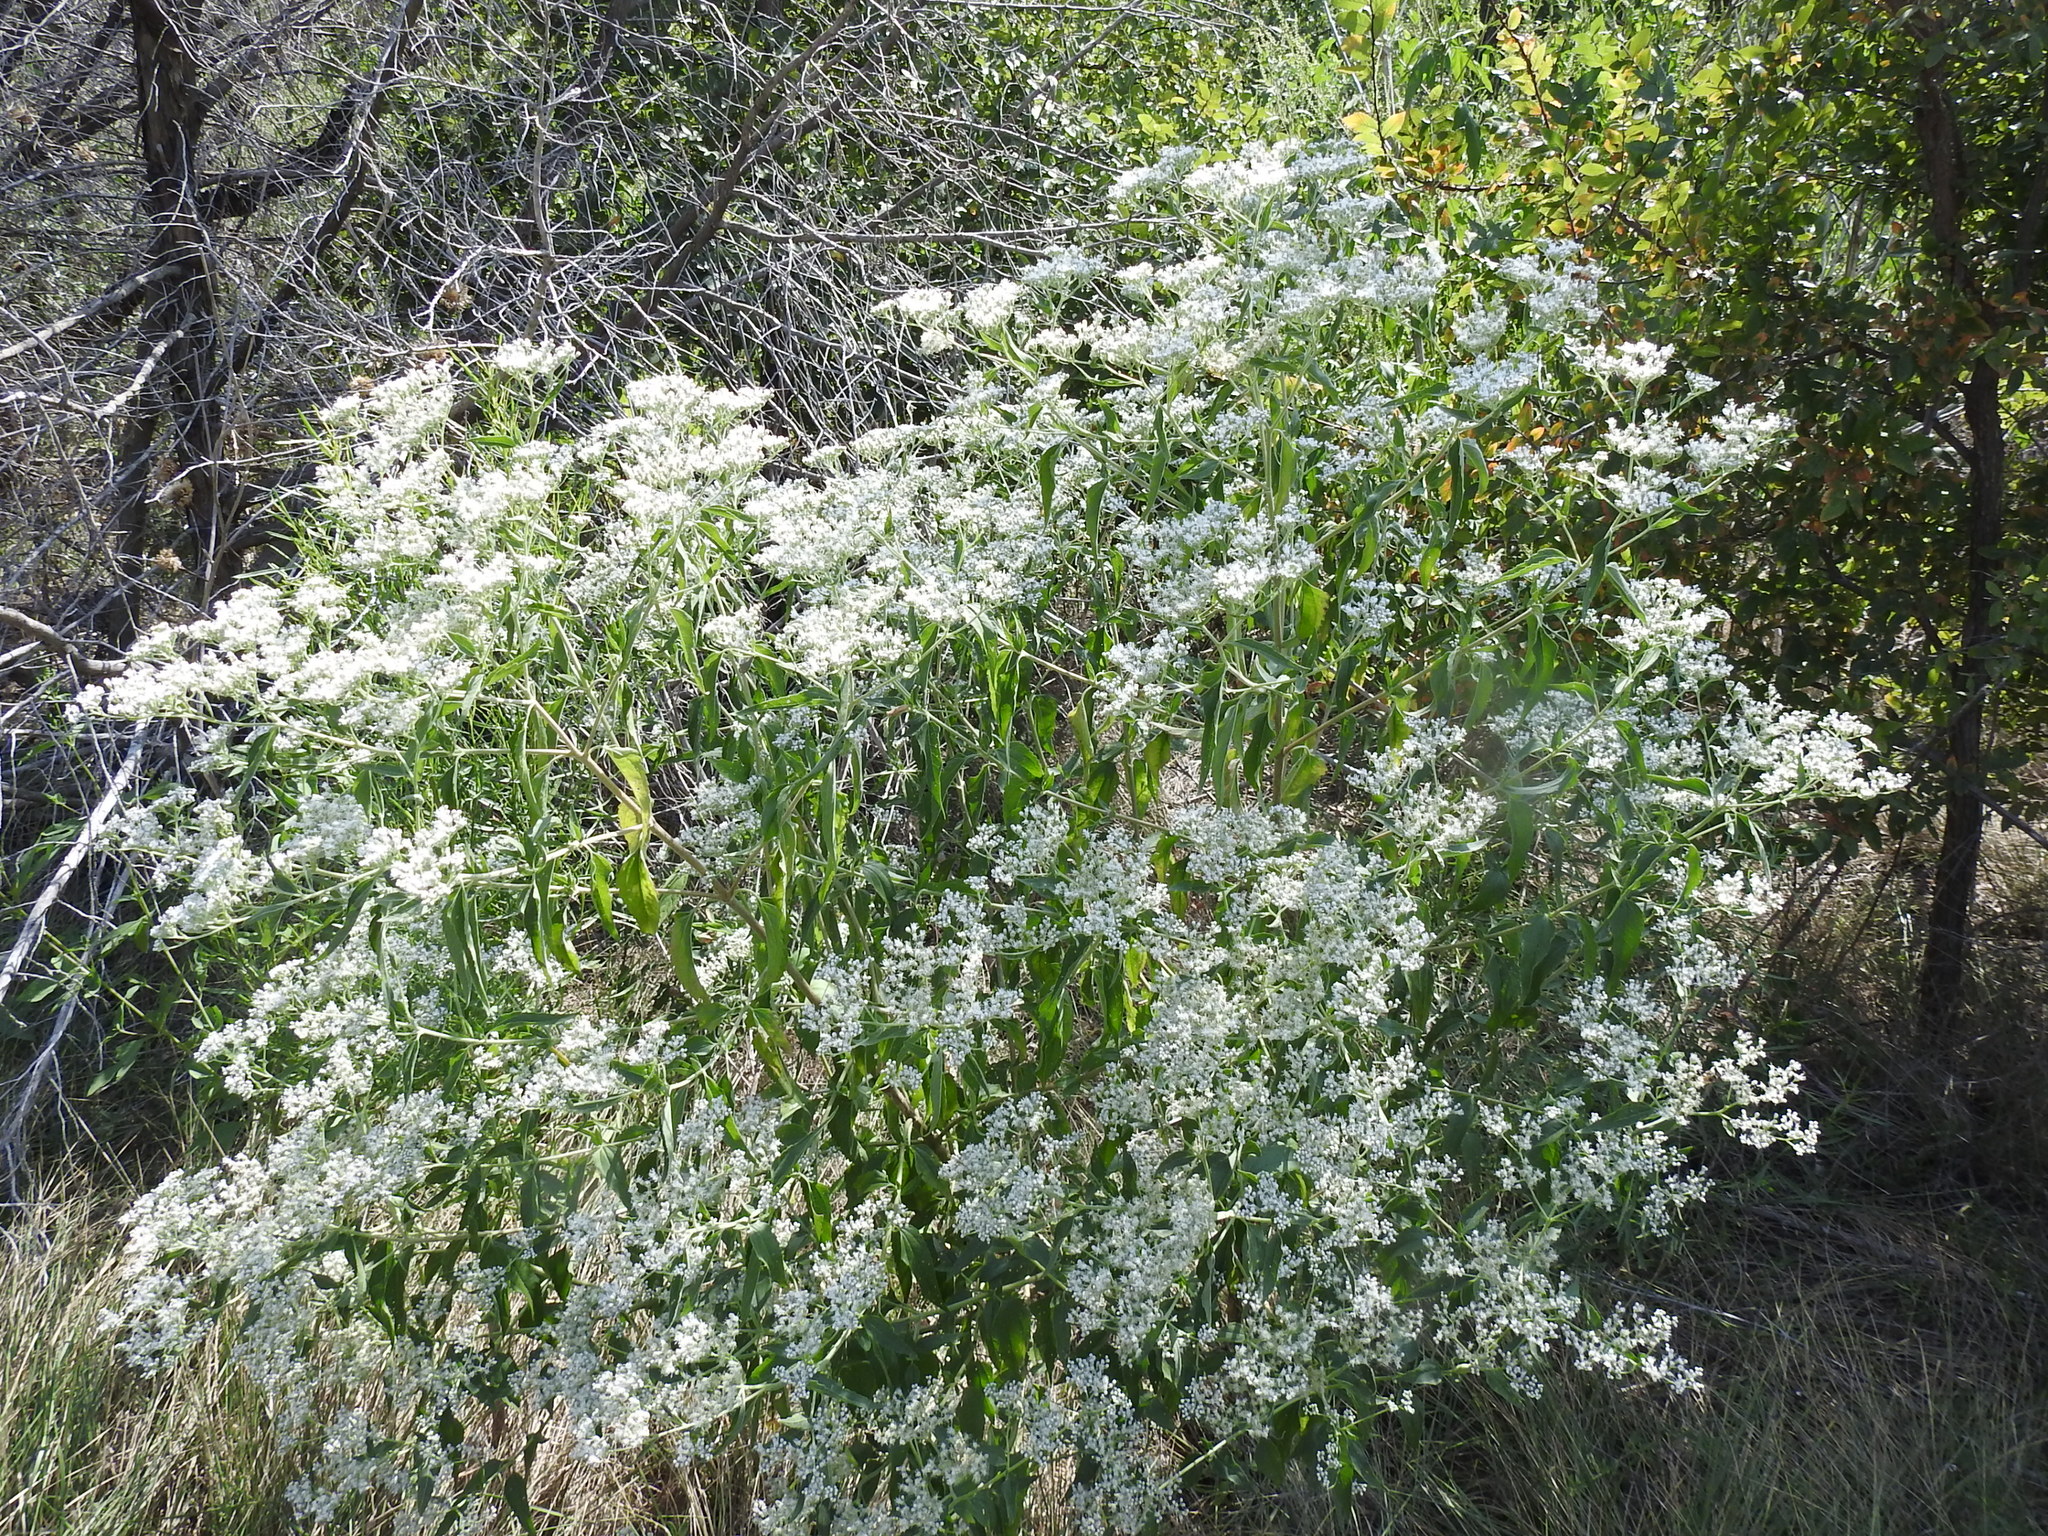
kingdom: Plantae
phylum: Tracheophyta
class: Magnoliopsida
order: Asterales
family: Asteraceae
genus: Eupatorium
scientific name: Eupatorium serotinum
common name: Late boneset
